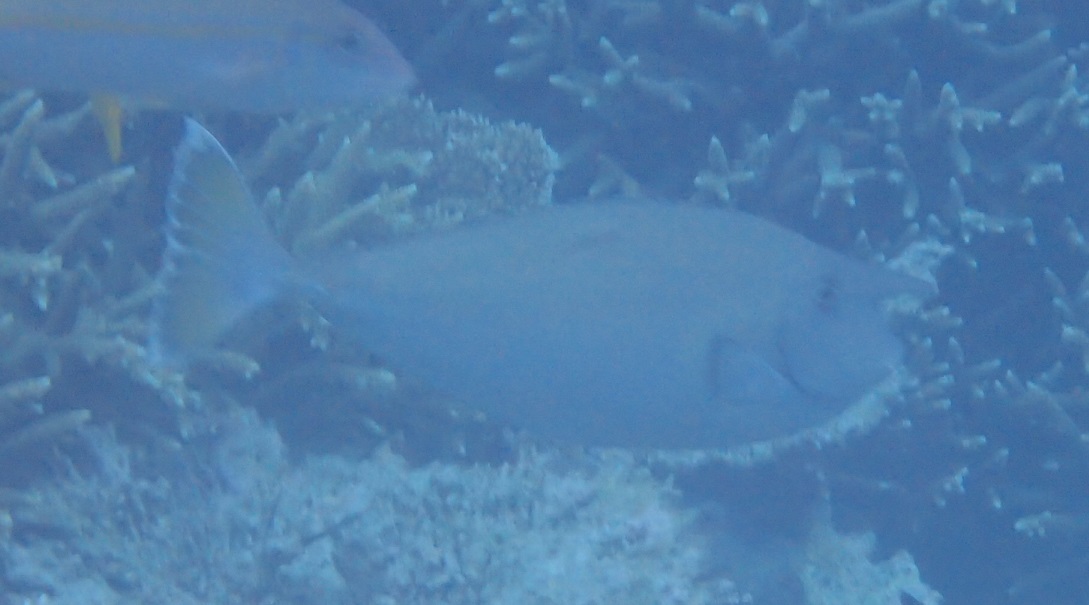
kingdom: Animalia
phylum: Chordata
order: Perciformes
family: Acanthuridae
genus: Naso
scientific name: Naso annulatus
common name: Whitemargin unicornfish
